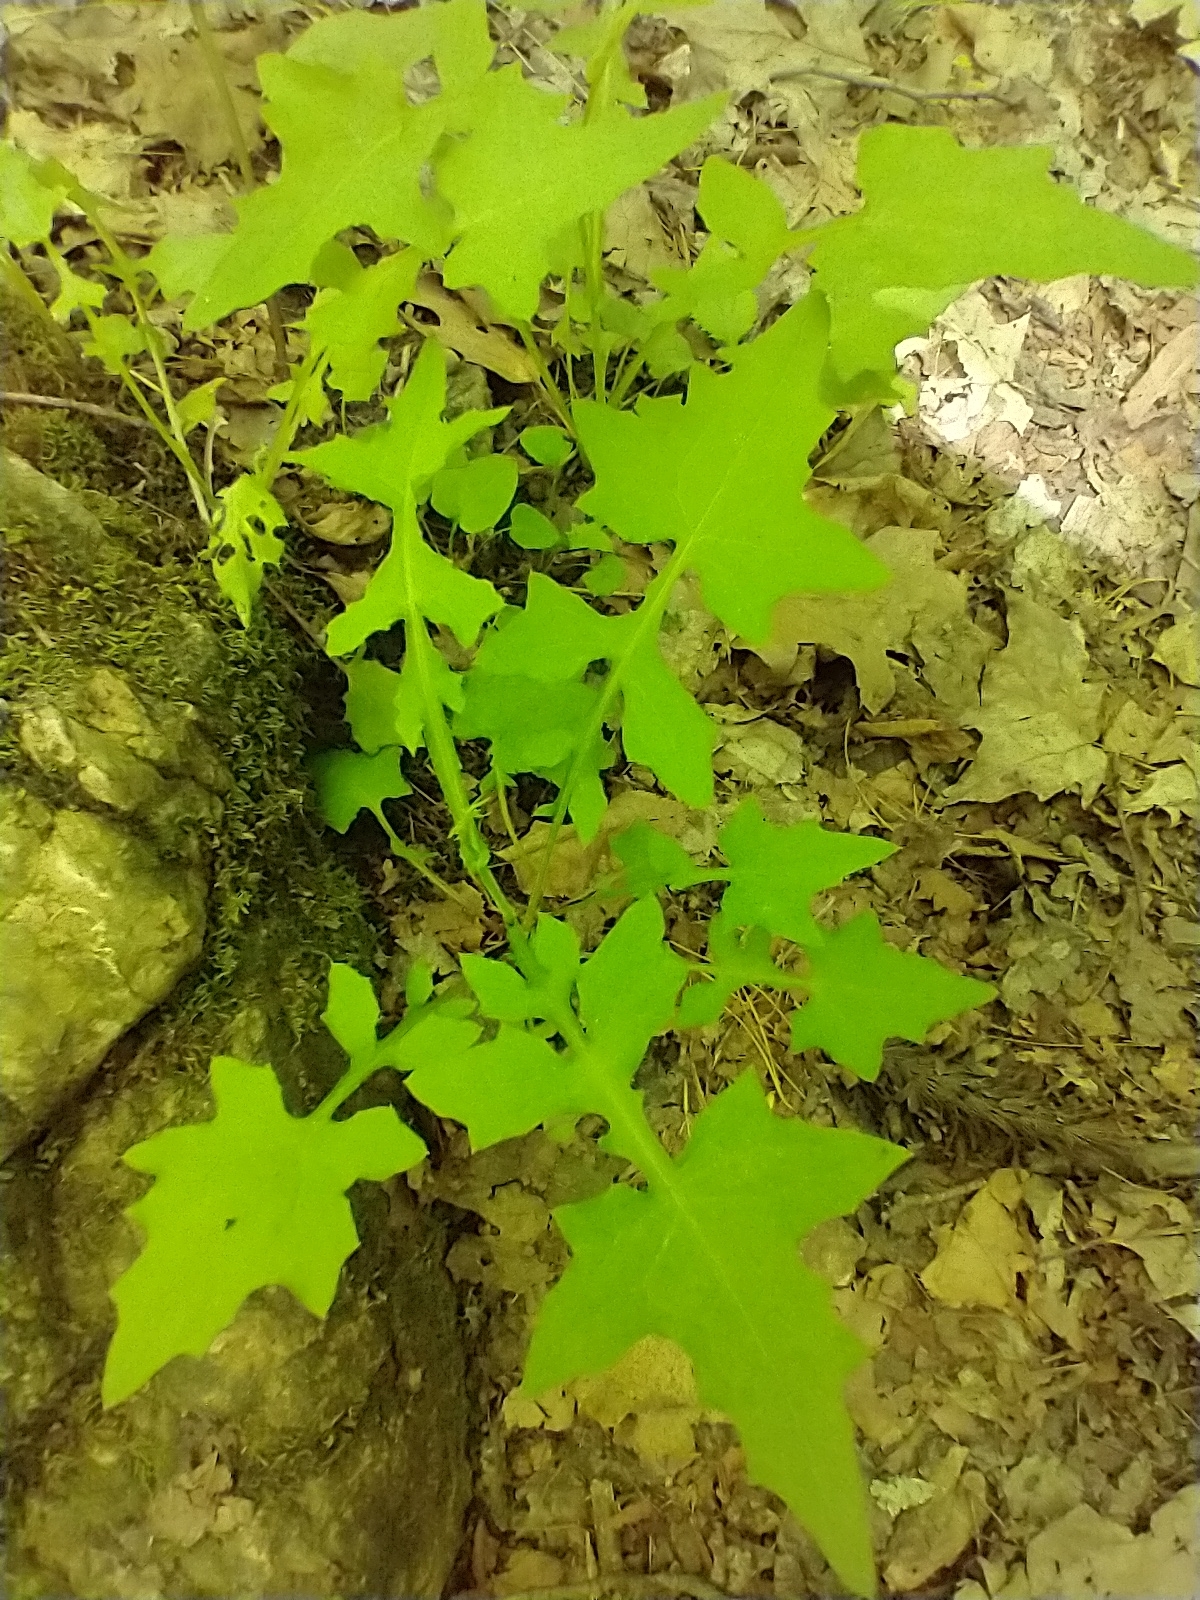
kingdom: Plantae
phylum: Tracheophyta
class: Magnoliopsida
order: Asterales
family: Asteraceae
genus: Mycelis
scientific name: Mycelis muralis
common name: Wall lettuce
